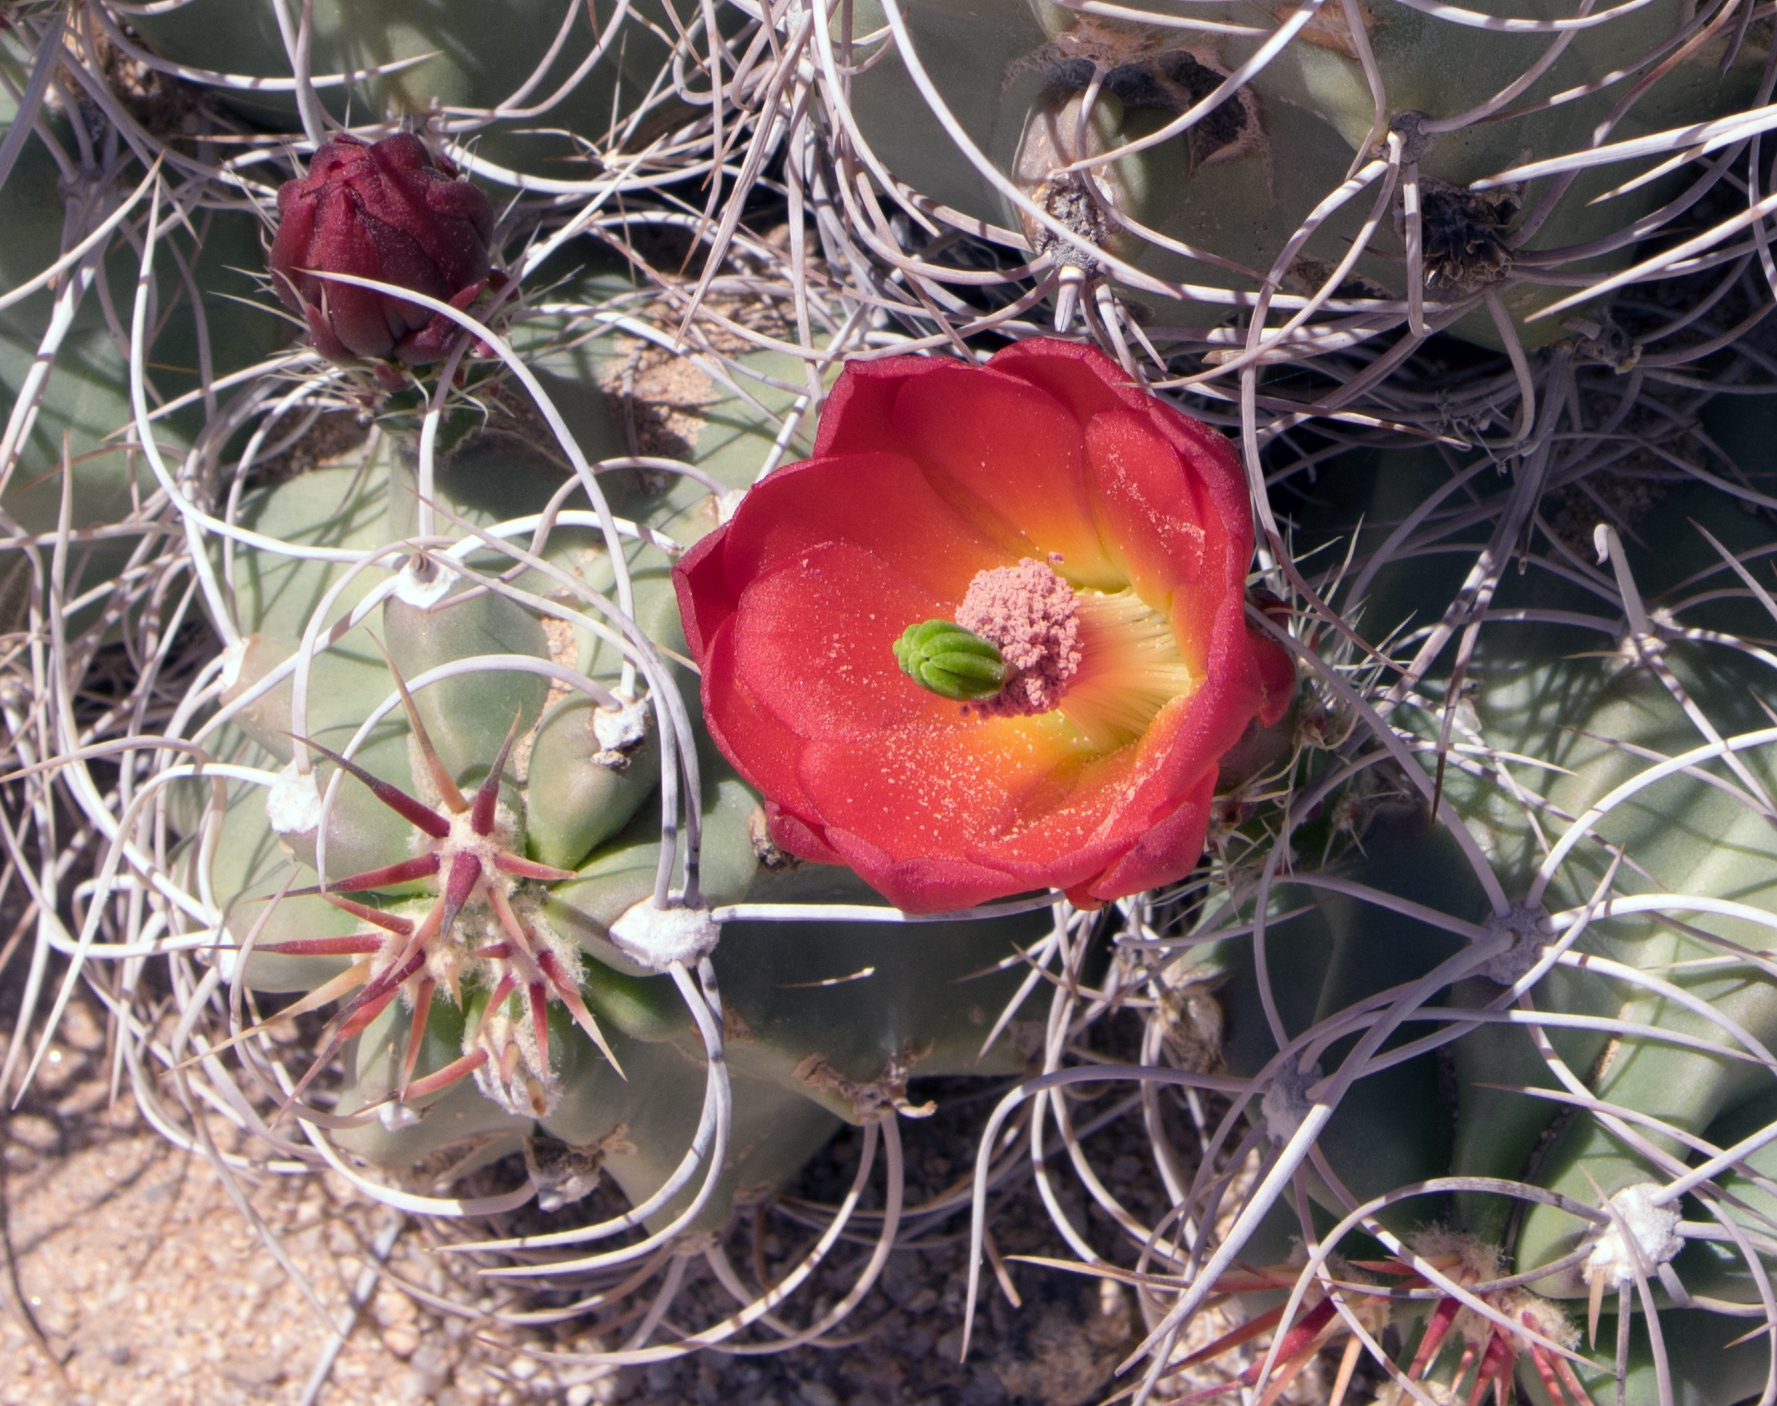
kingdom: Plantae
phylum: Tracheophyta
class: Magnoliopsida
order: Caryophyllales
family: Cactaceae
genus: Echinocereus
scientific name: Echinocereus triglochidiatus
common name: Claretcup hedgehog
